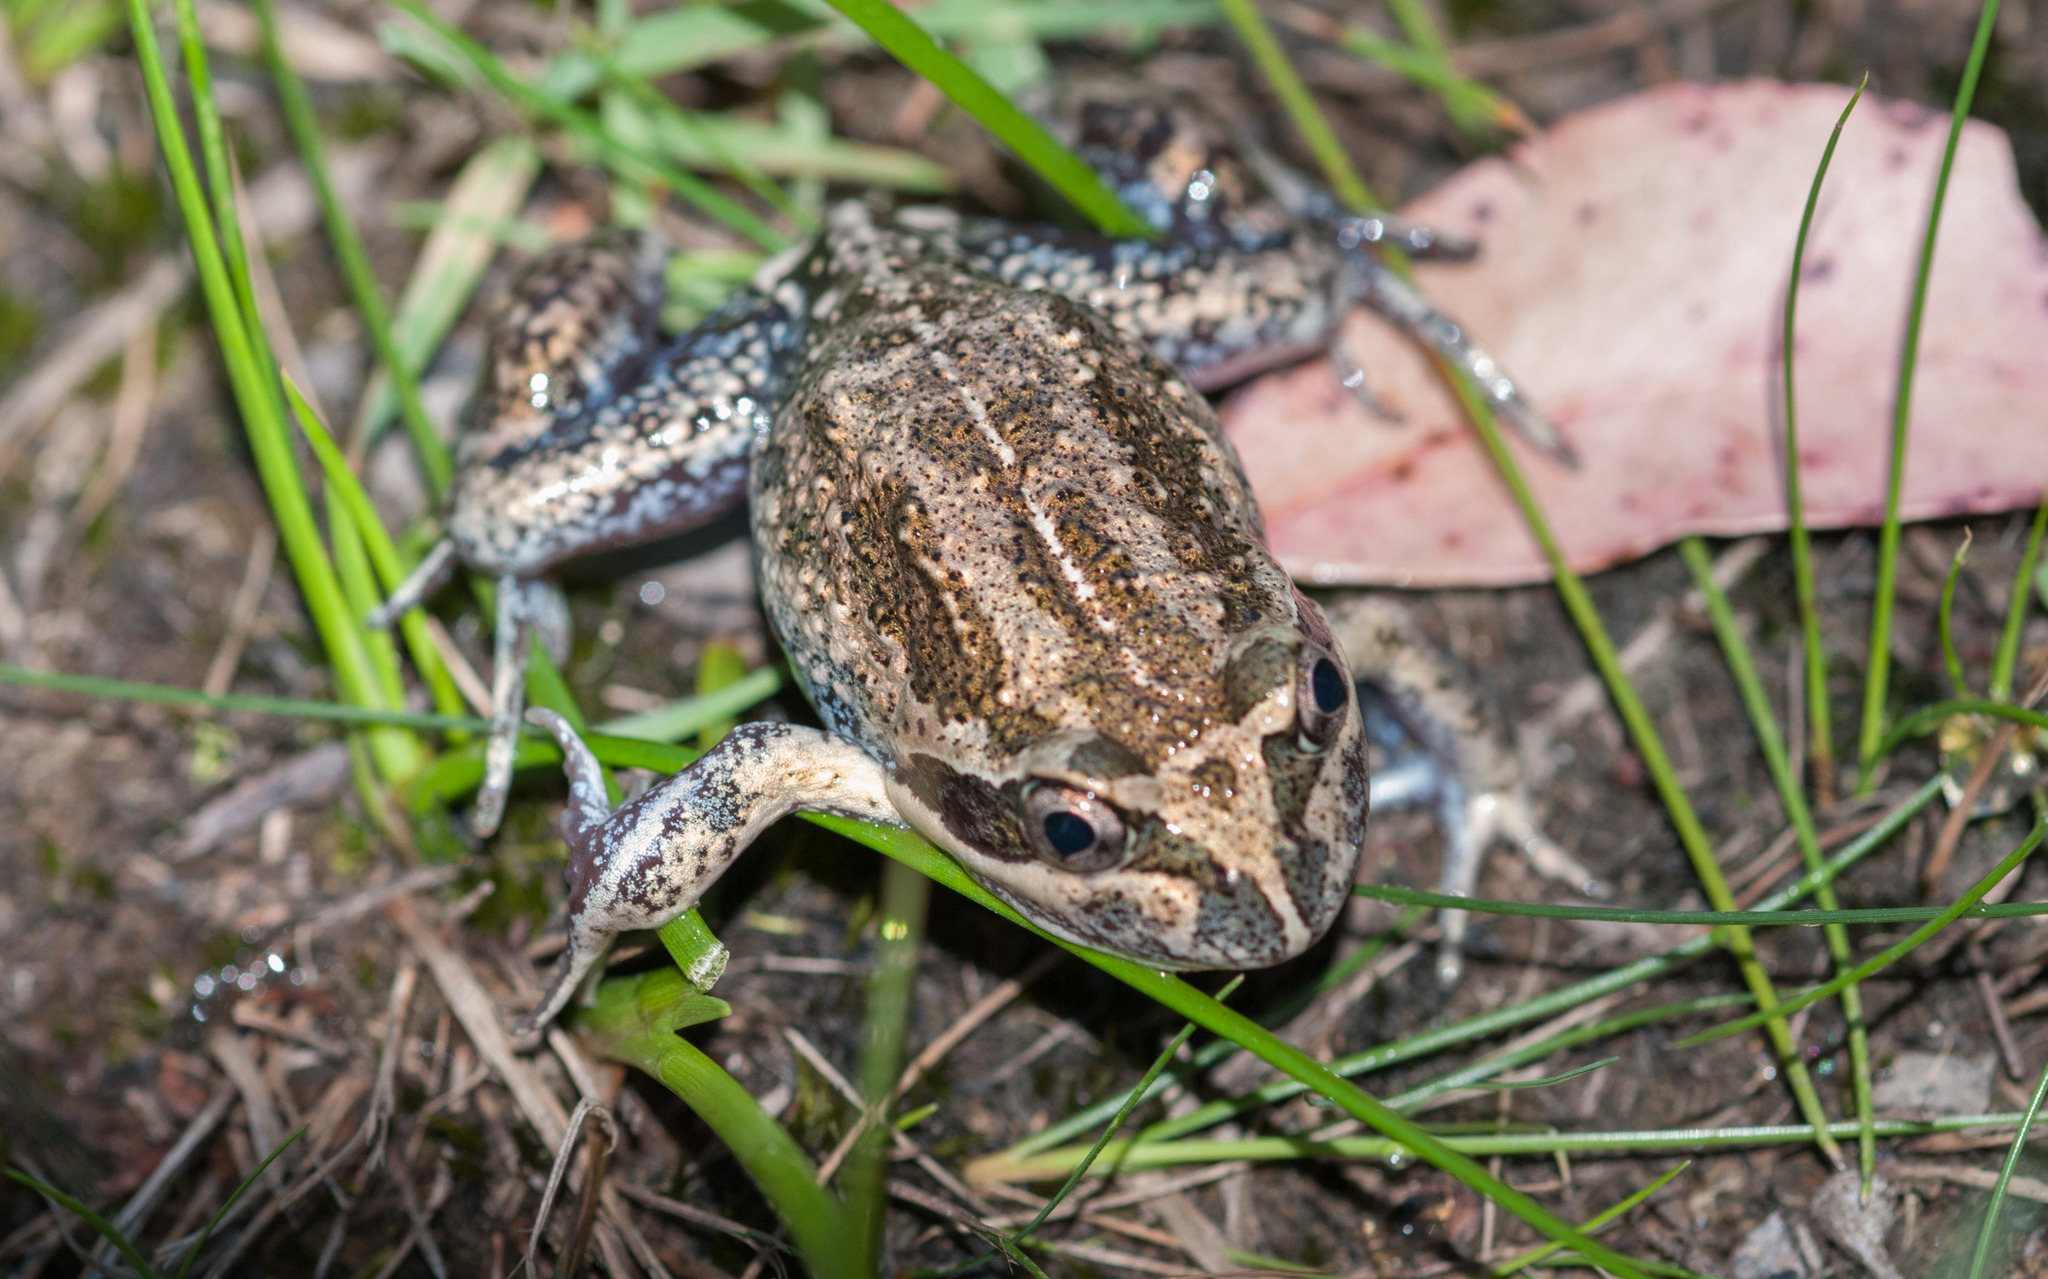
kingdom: Animalia
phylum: Chordata
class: Amphibia
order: Anura
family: Limnodynastidae
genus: Limnodynastes
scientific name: Limnodynastes dumerilii
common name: Banjo frog
